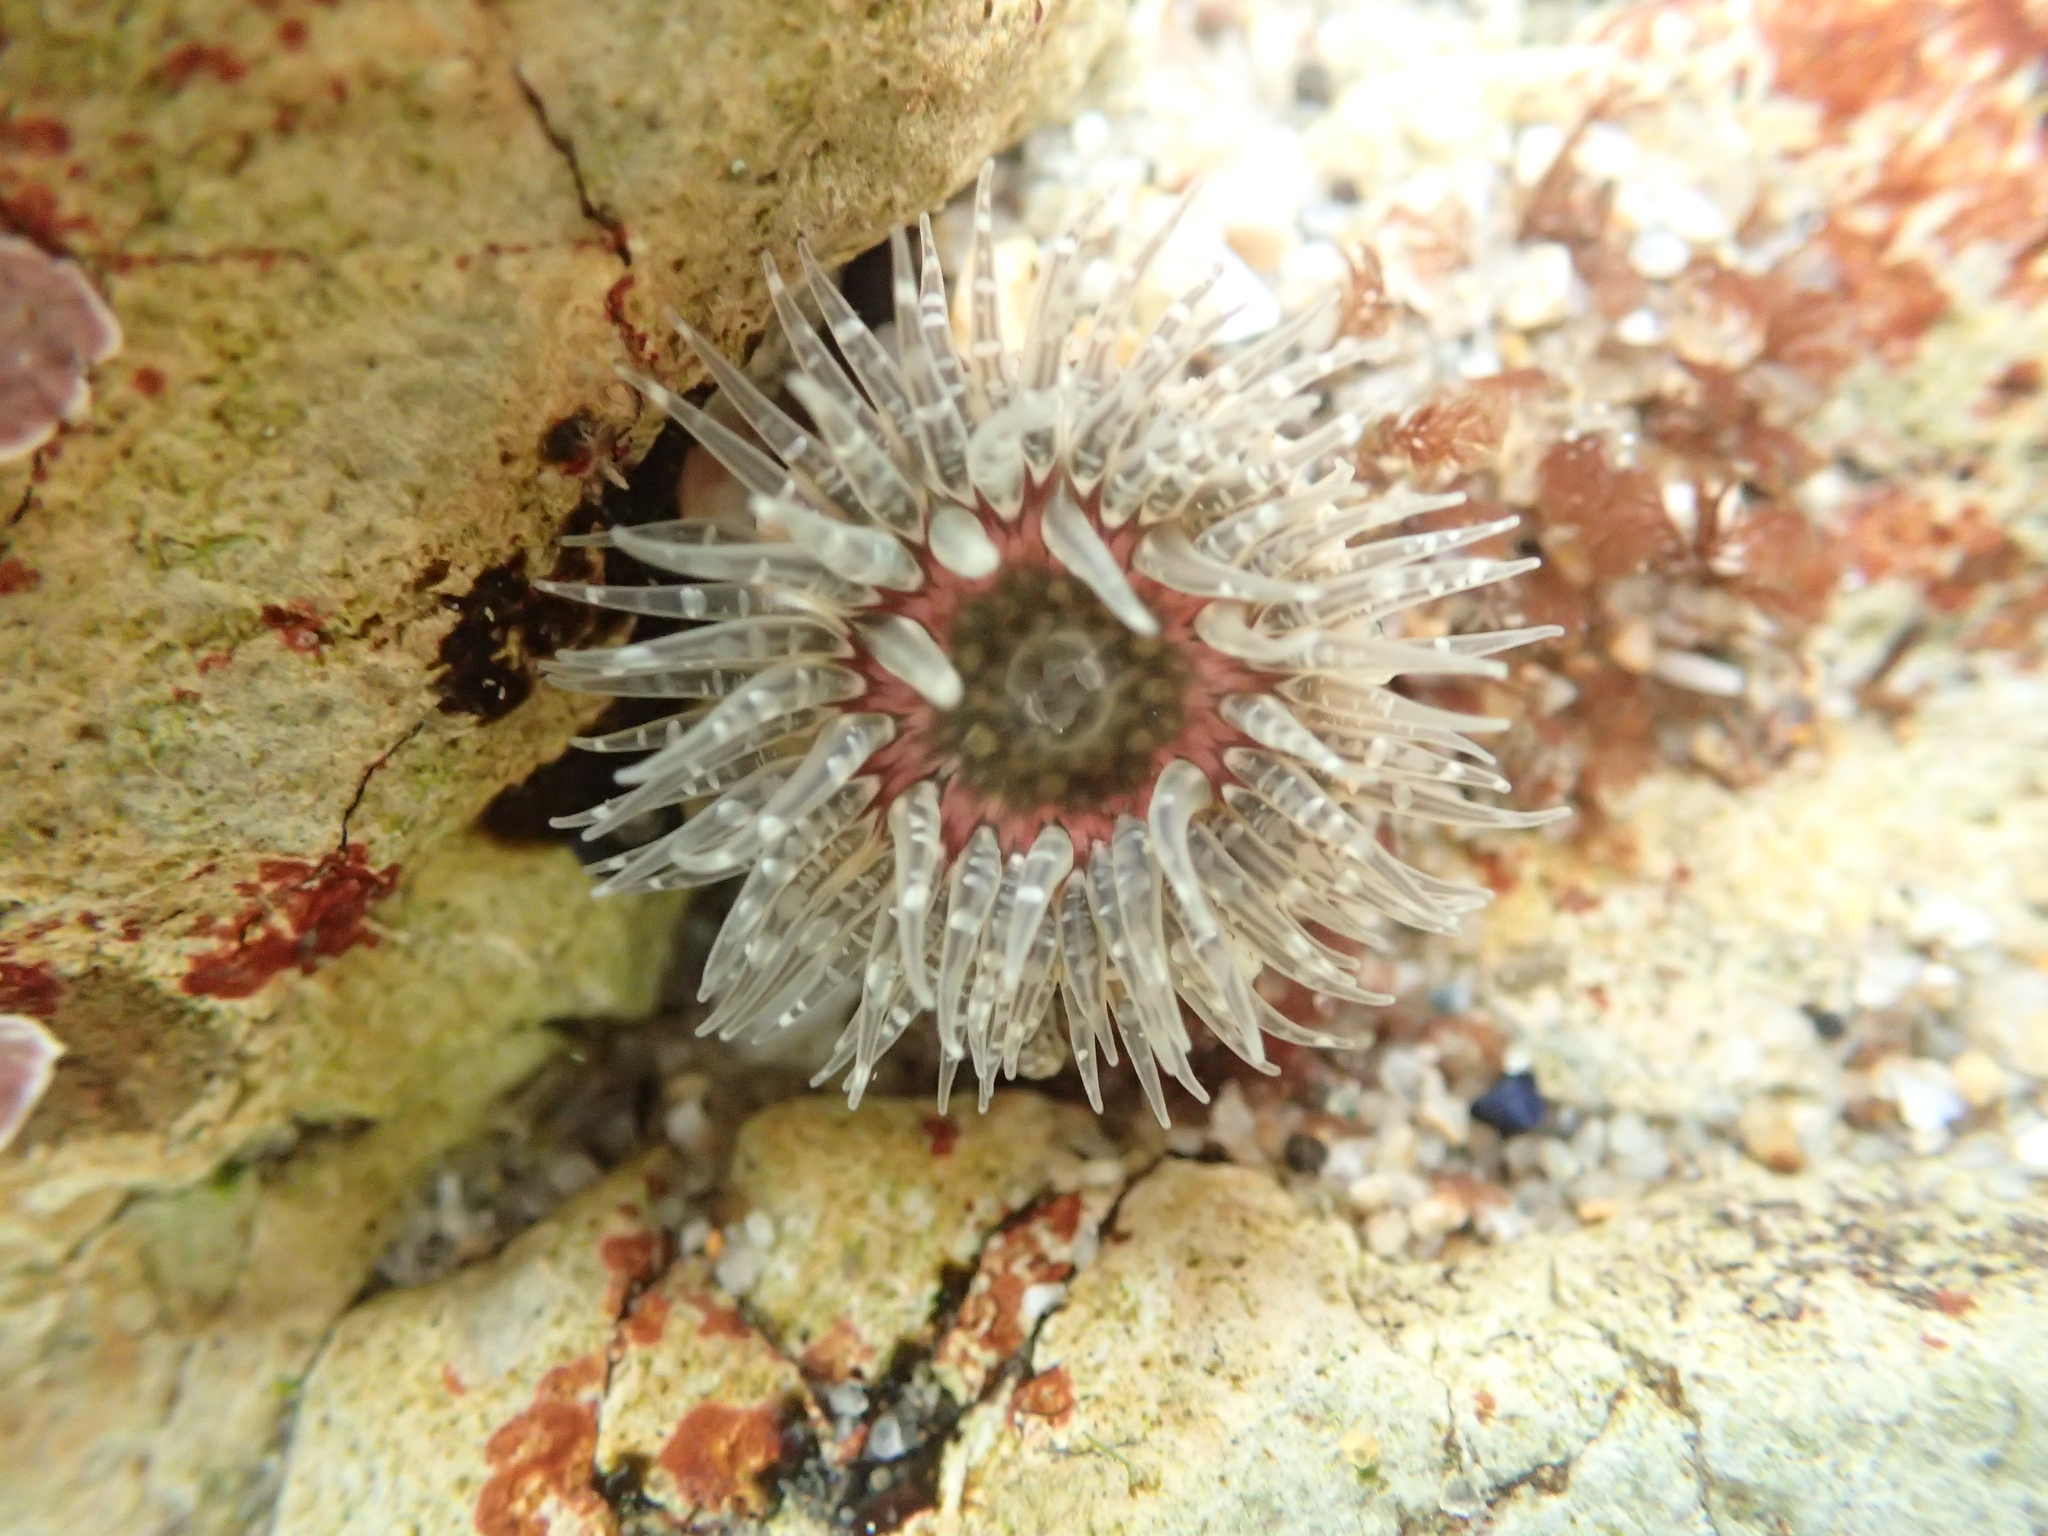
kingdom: Animalia
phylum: Cnidaria
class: Anthozoa
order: Actiniaria
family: Actiniidae
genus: Anthopleura
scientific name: Anthopleura artemisia
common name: Buried sea anemone
